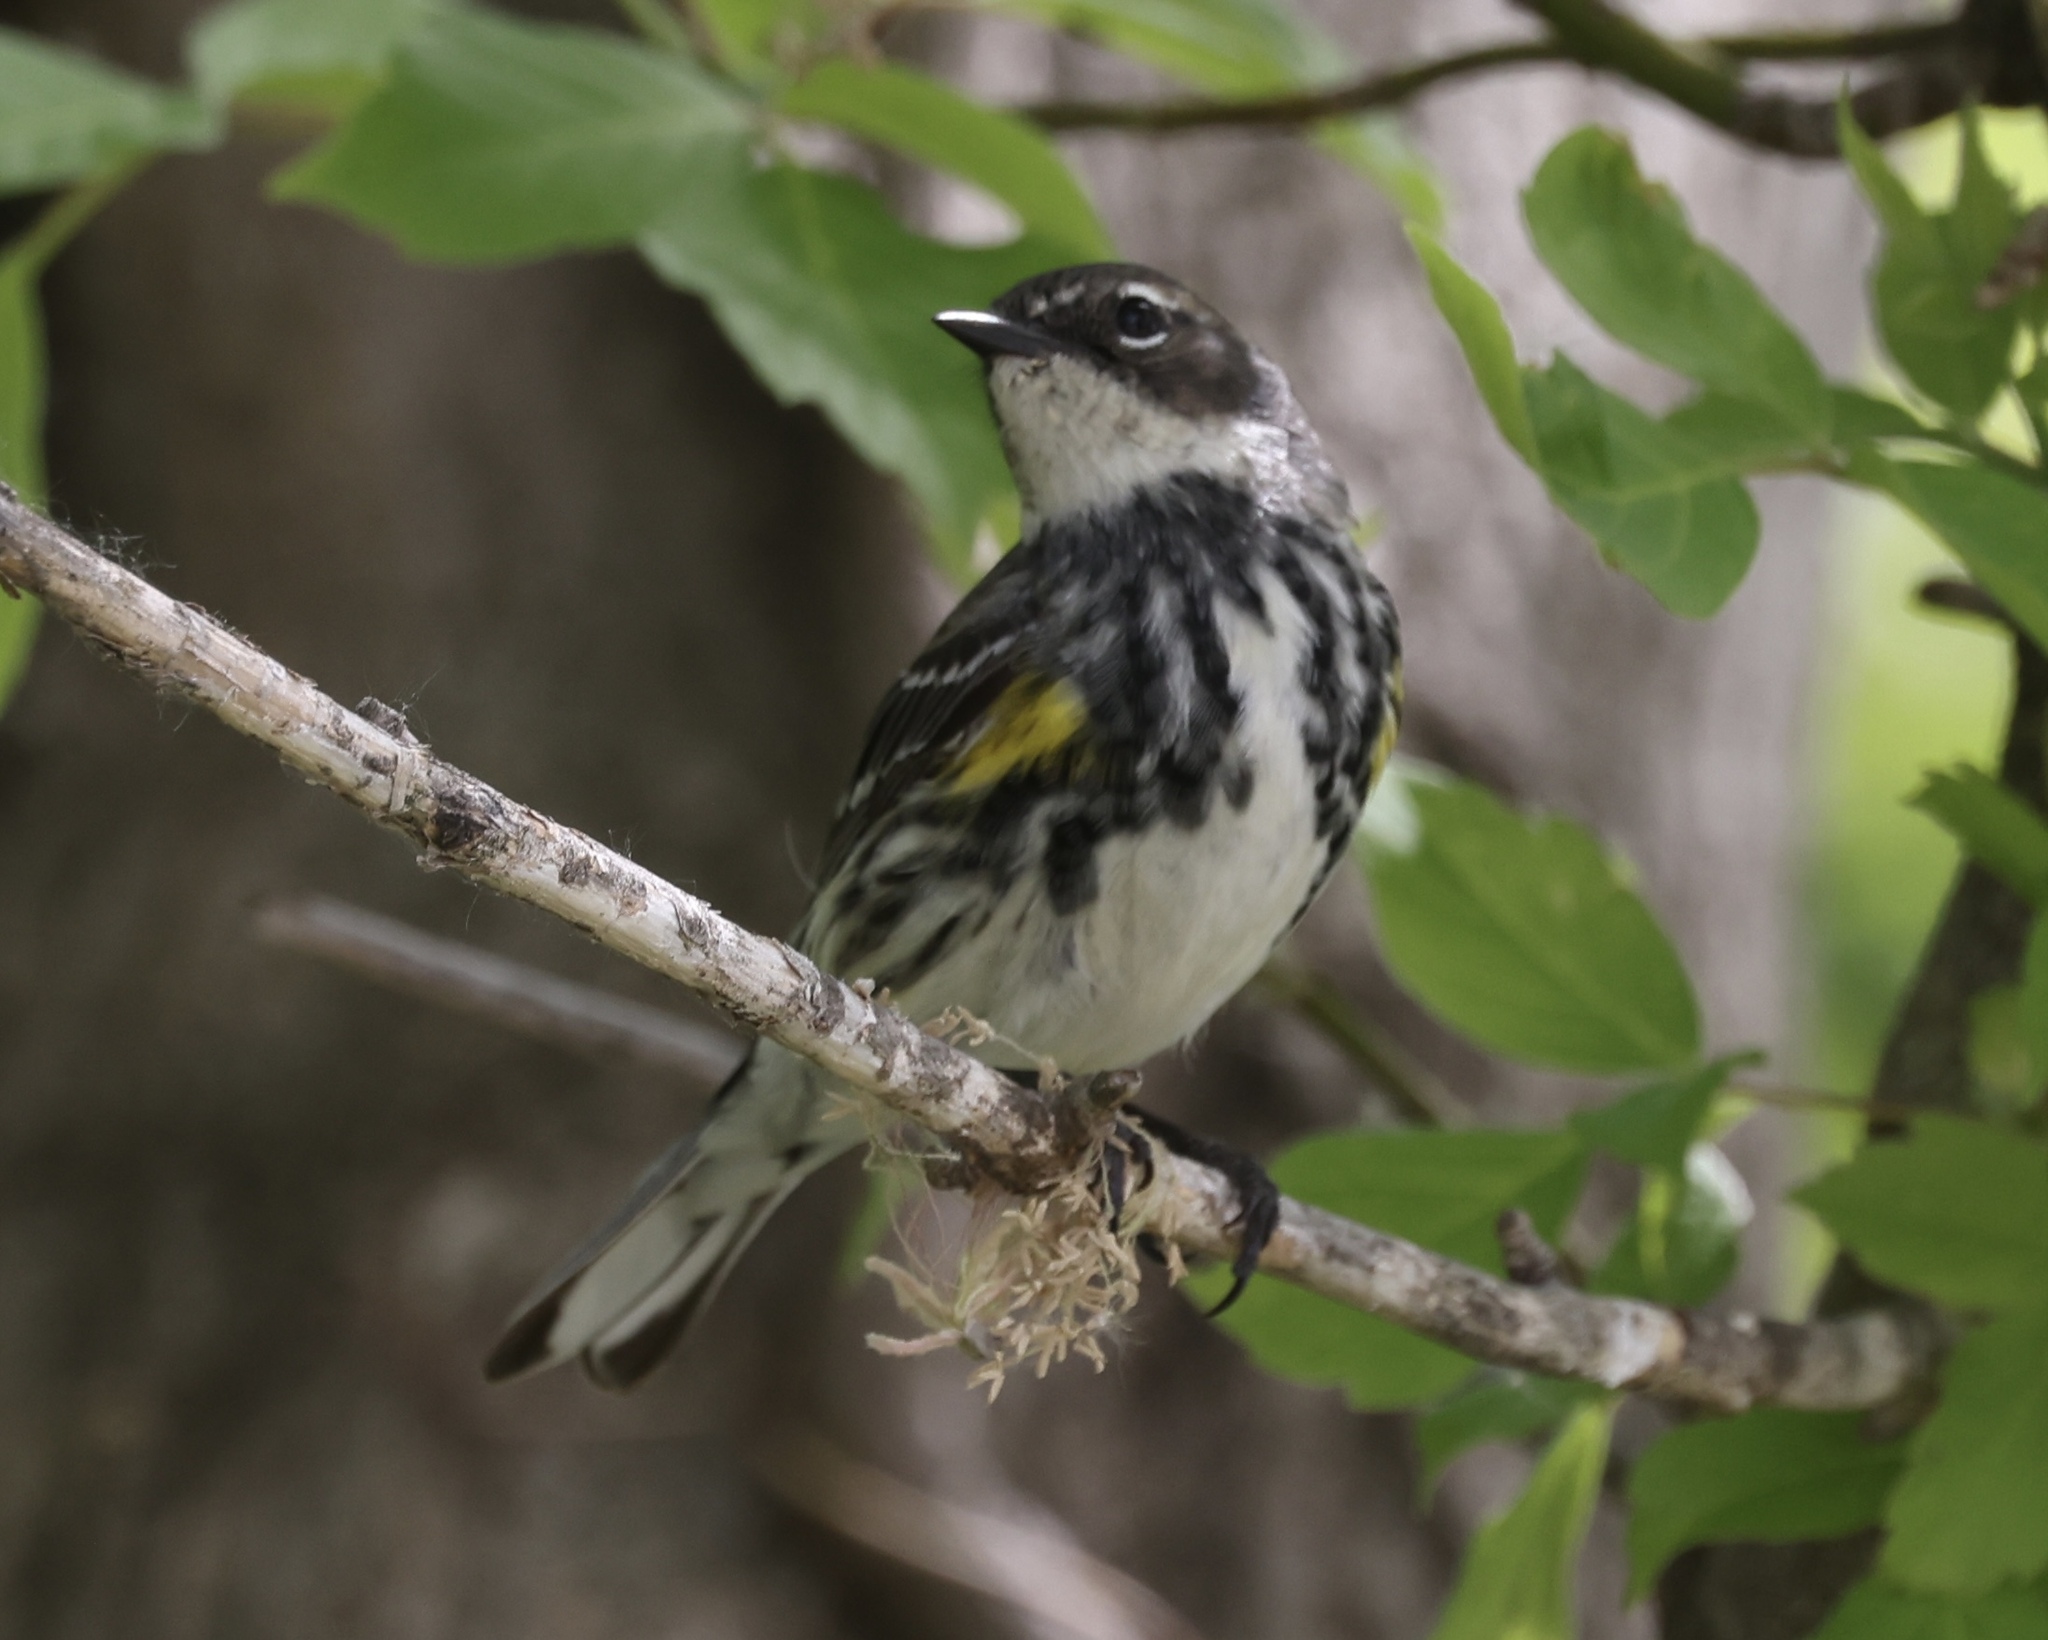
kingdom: Animalia
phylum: Chordata
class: Aves
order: Passeriformes
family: Parulidae
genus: Setophaga
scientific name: Setophaga coronata
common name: Myrtle warbler
